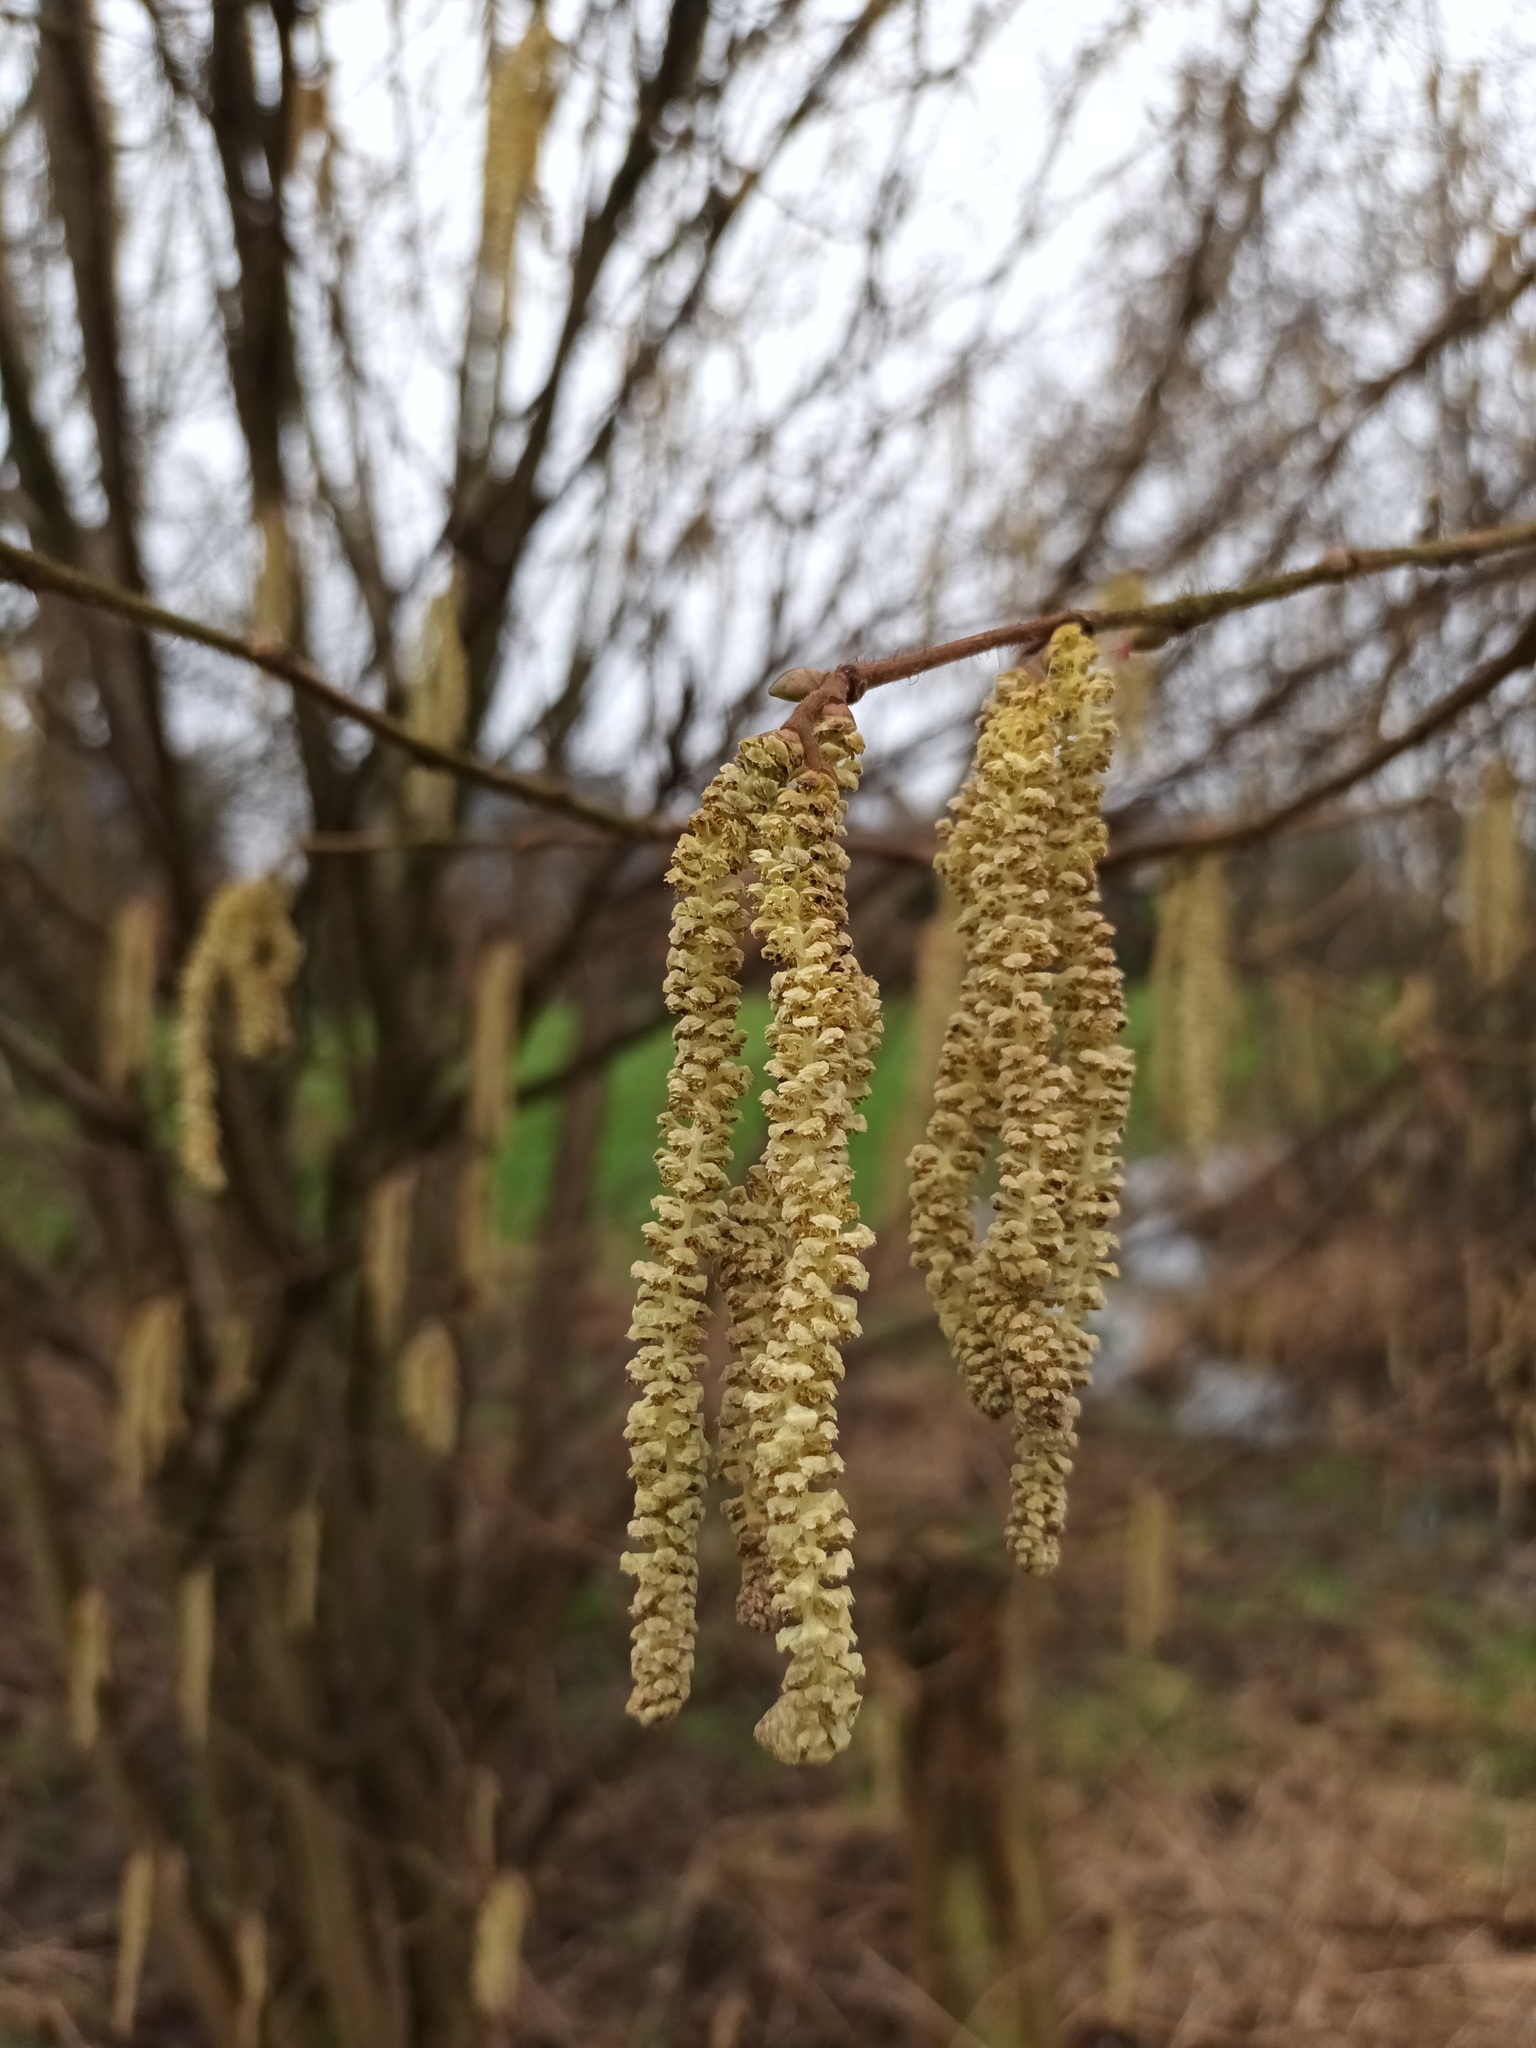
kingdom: Plantae
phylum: Tracheophyta
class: Magnoliopsida
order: Fagales
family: Betulaceae
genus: Corylus
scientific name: Corylus avellana
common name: European hazel
